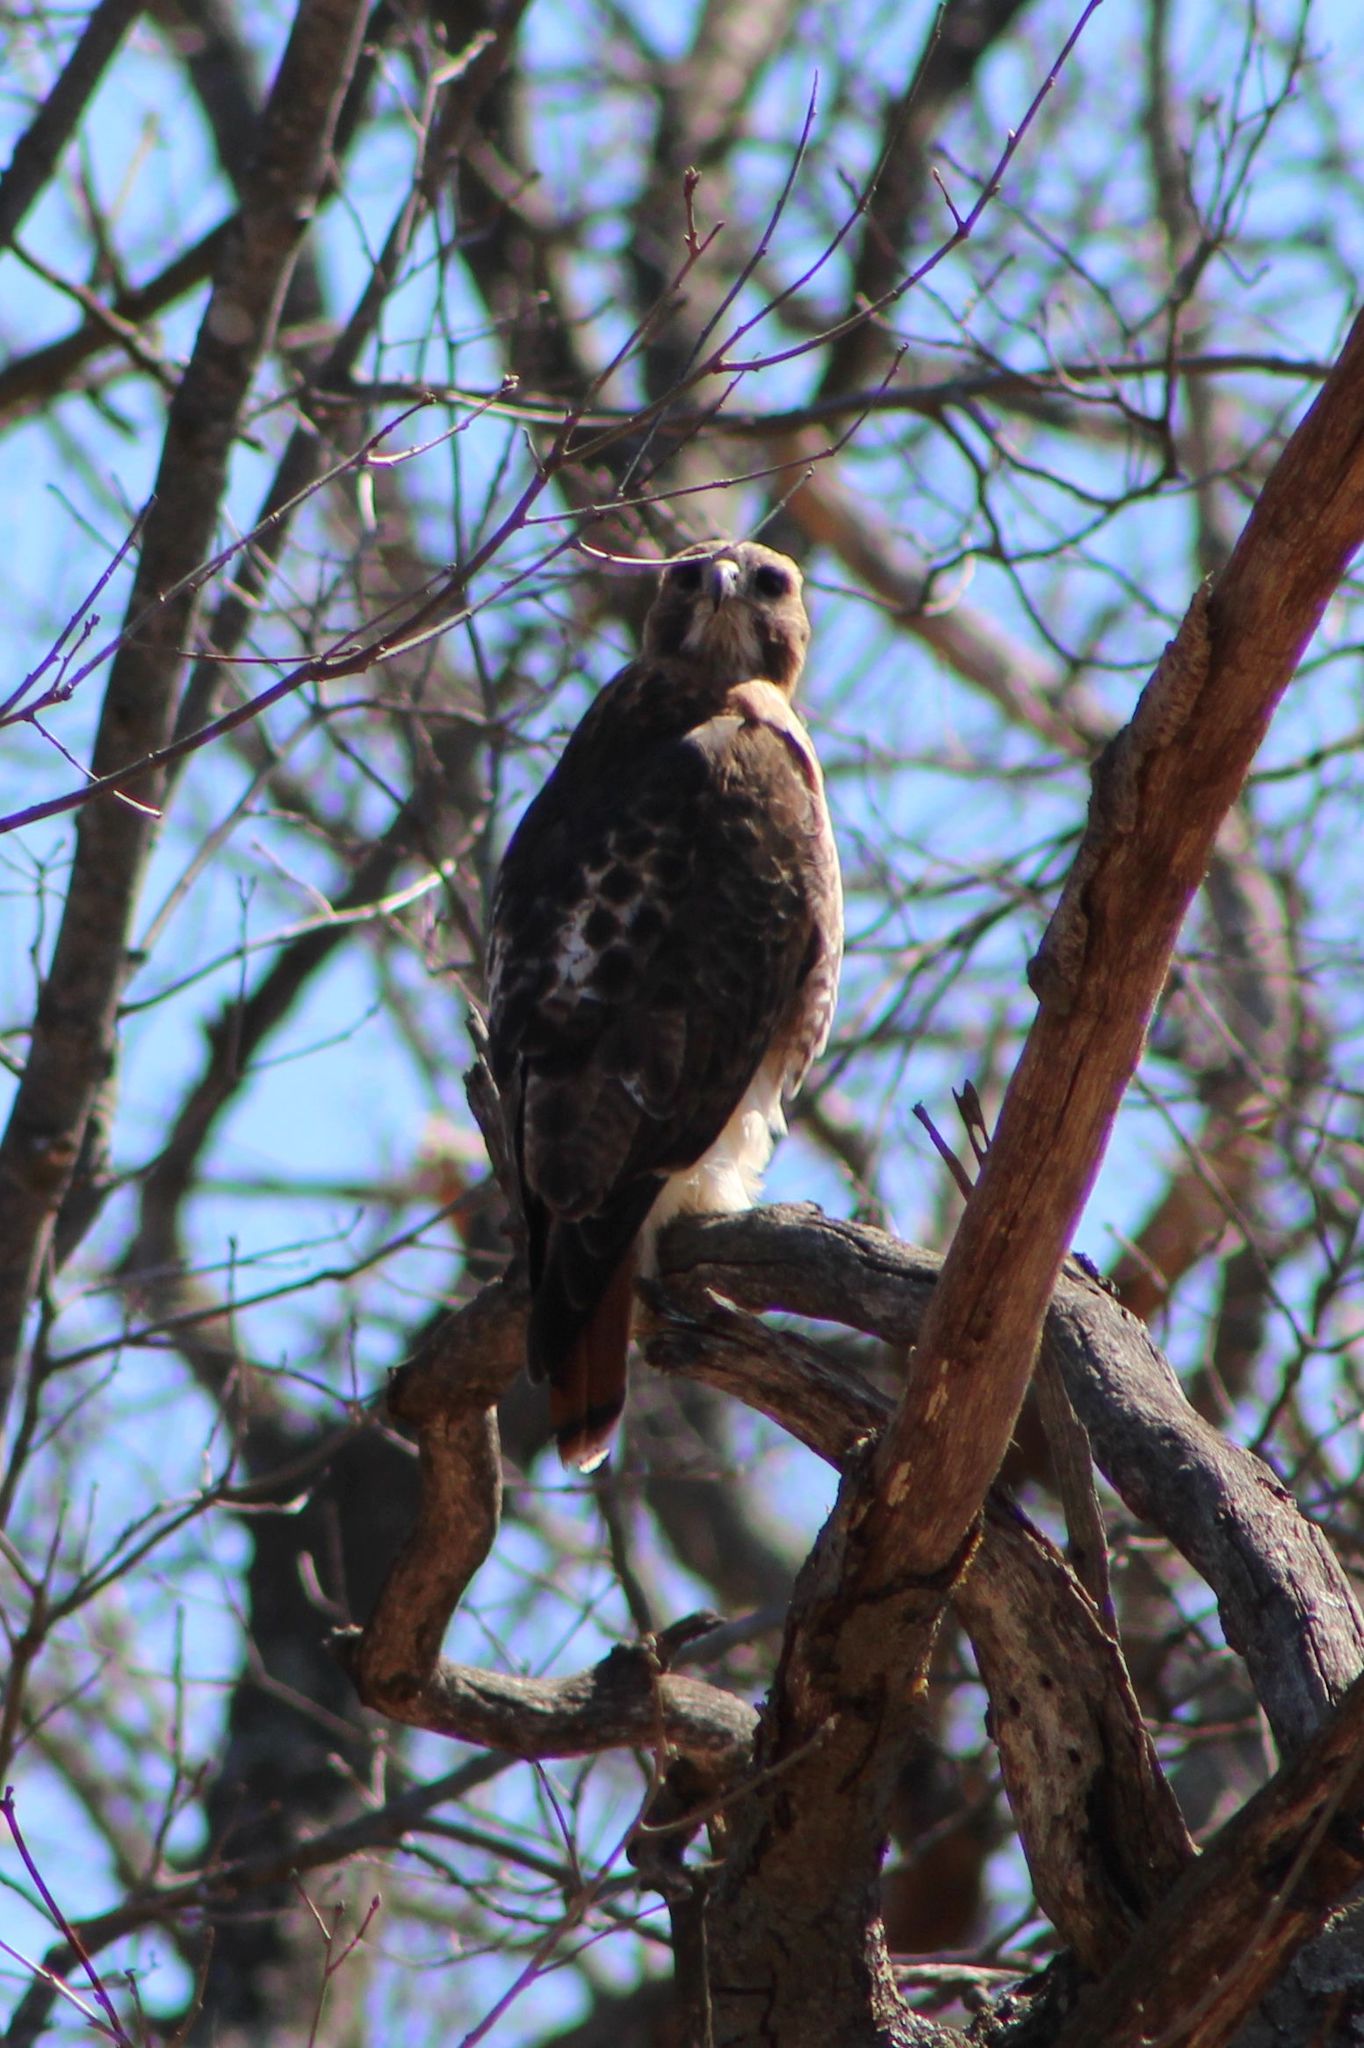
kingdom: Animalia
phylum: Chordata
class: Aves
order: Accipitriformes
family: Accipitridae
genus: Buteo
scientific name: Buteo jamaicensis
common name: Red-tailed hawk
